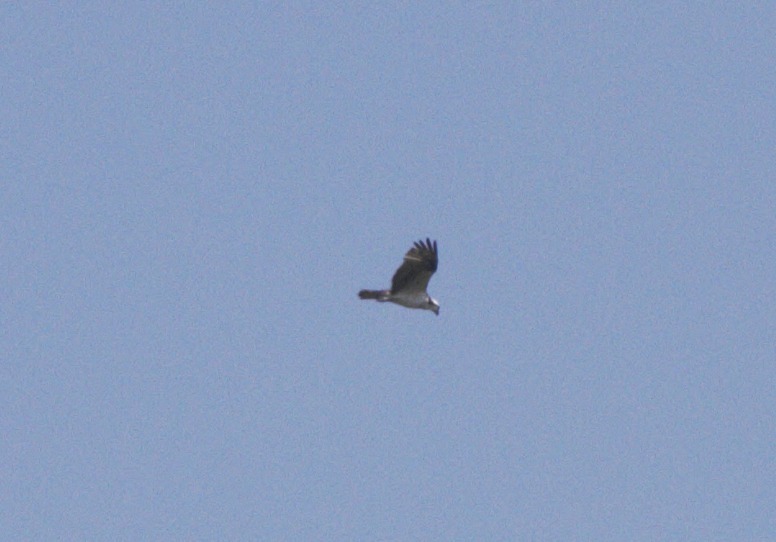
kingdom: Animalia
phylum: Chordata
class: Aves
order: Accipitriformes
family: Pandionidae
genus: Pandion
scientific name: Pandion haliaetus
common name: Osprey
